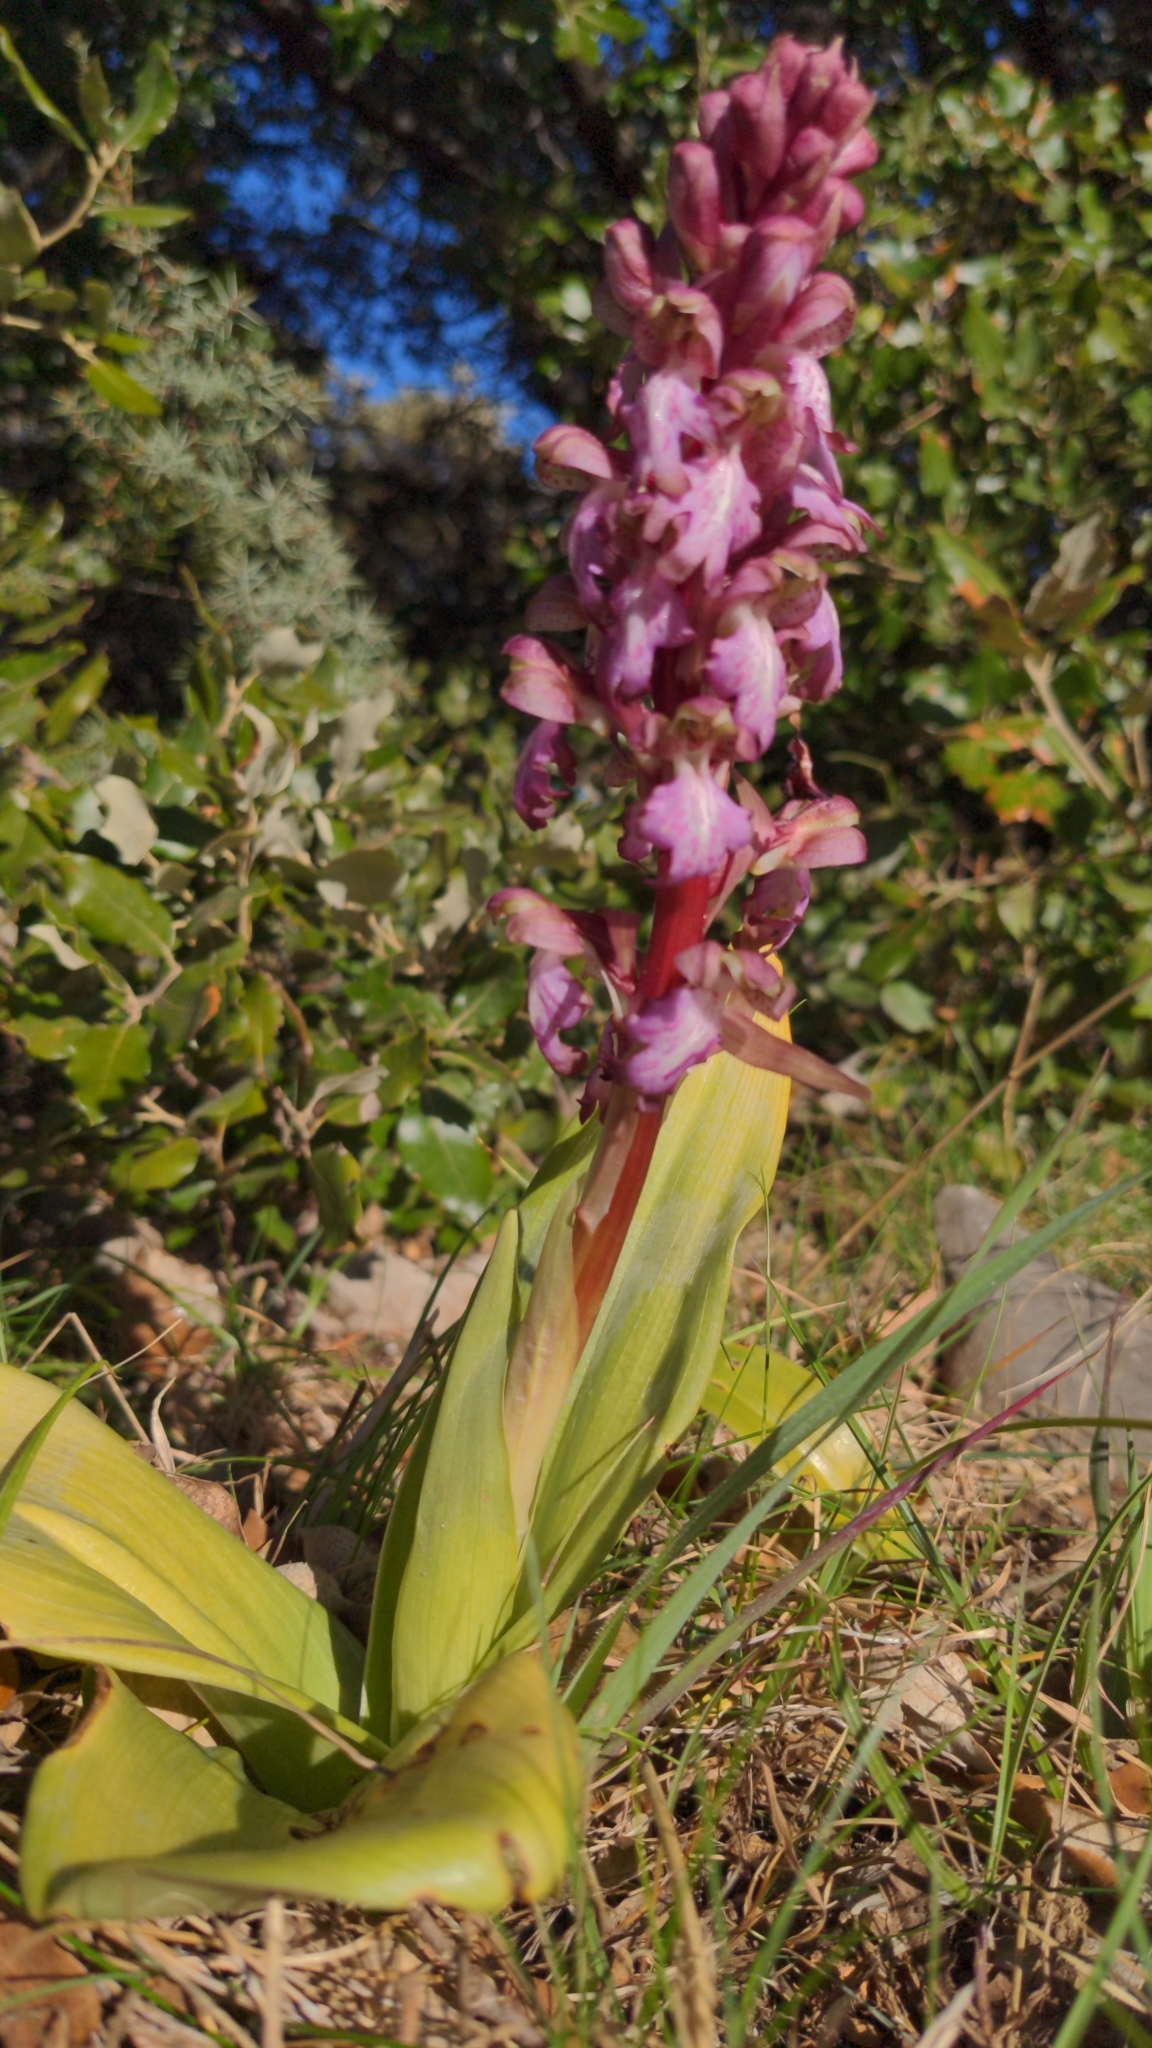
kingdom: Plantae
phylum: Tracheophyta
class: Liliopsida
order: Asparagales
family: Orchidaceae
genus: Himantoglossum
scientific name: Himantoglossum robertianum
